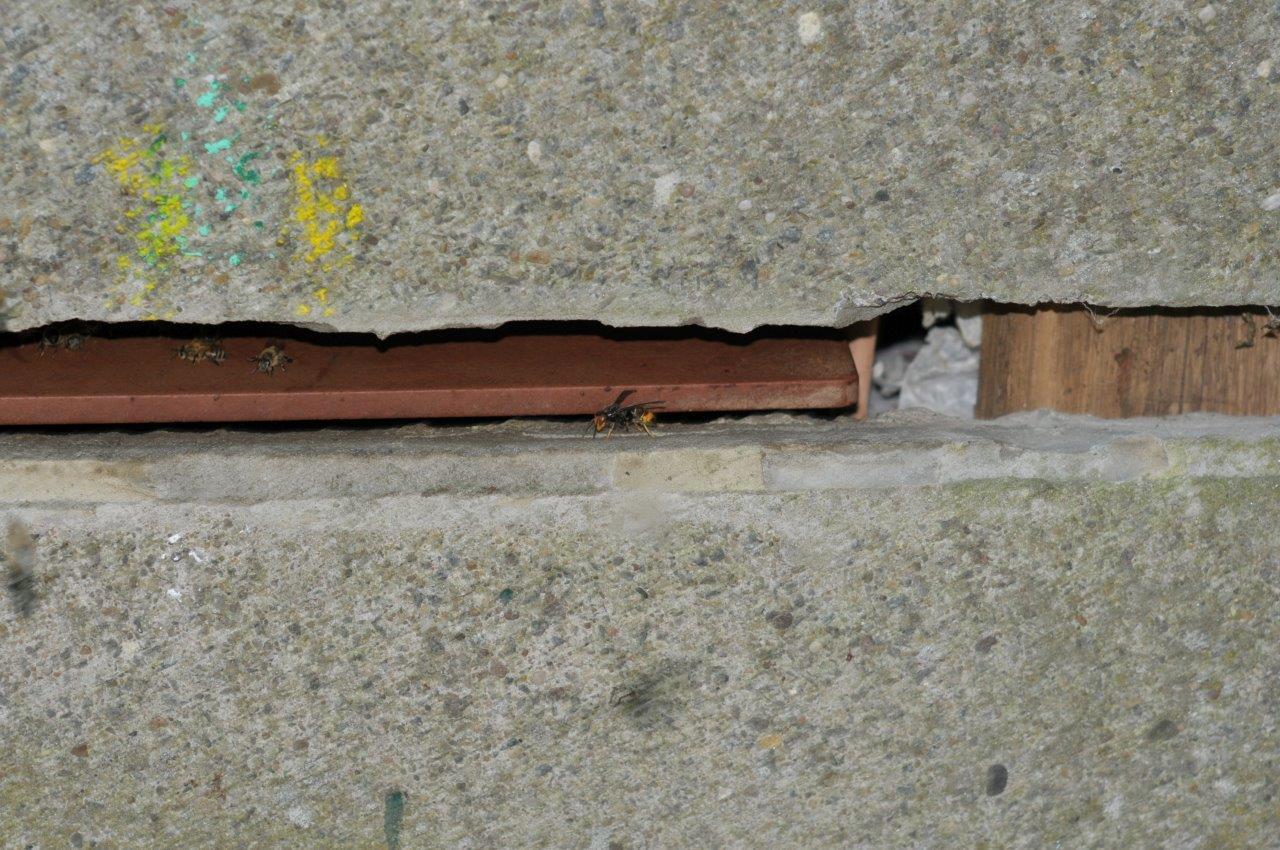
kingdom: Animalia
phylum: Arthropoda
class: Insecta
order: Hymenoptera
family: Vespidae
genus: Vespa
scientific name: Vespa velutina
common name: Asian hornet
